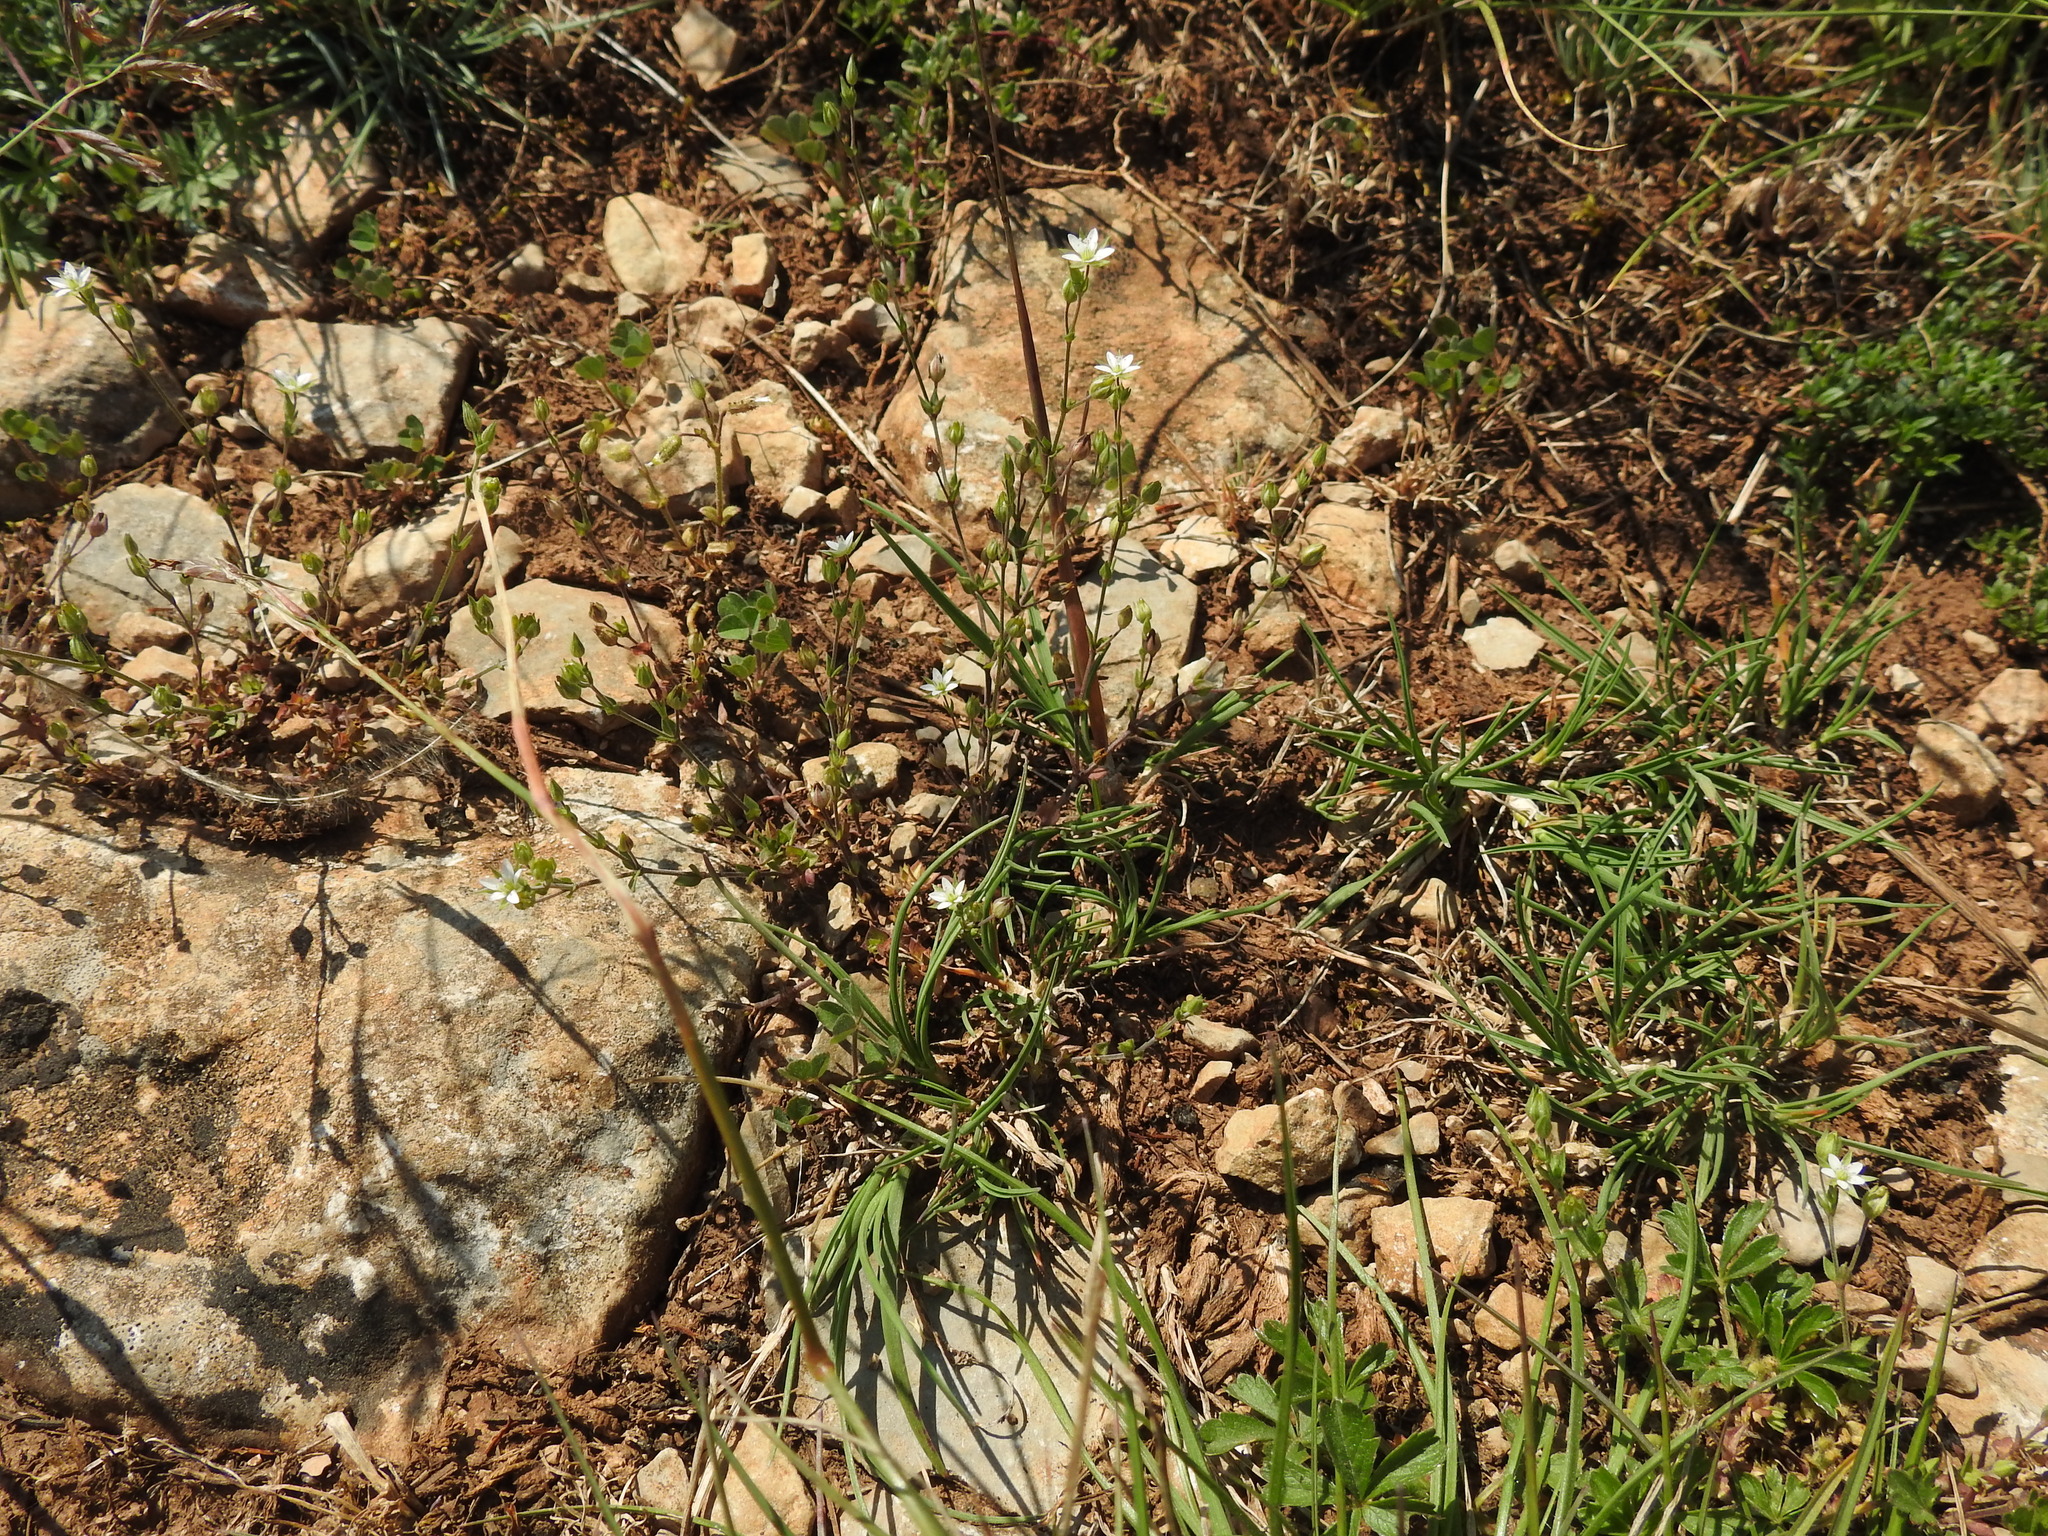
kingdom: Plantae
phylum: Tracheophyta
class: Magnoliopsida
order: Caryophyllales
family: Caryophyllaceae
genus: Arenaria
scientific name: Arenaria serpyllifolia
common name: Thyme-leaved sandwort
